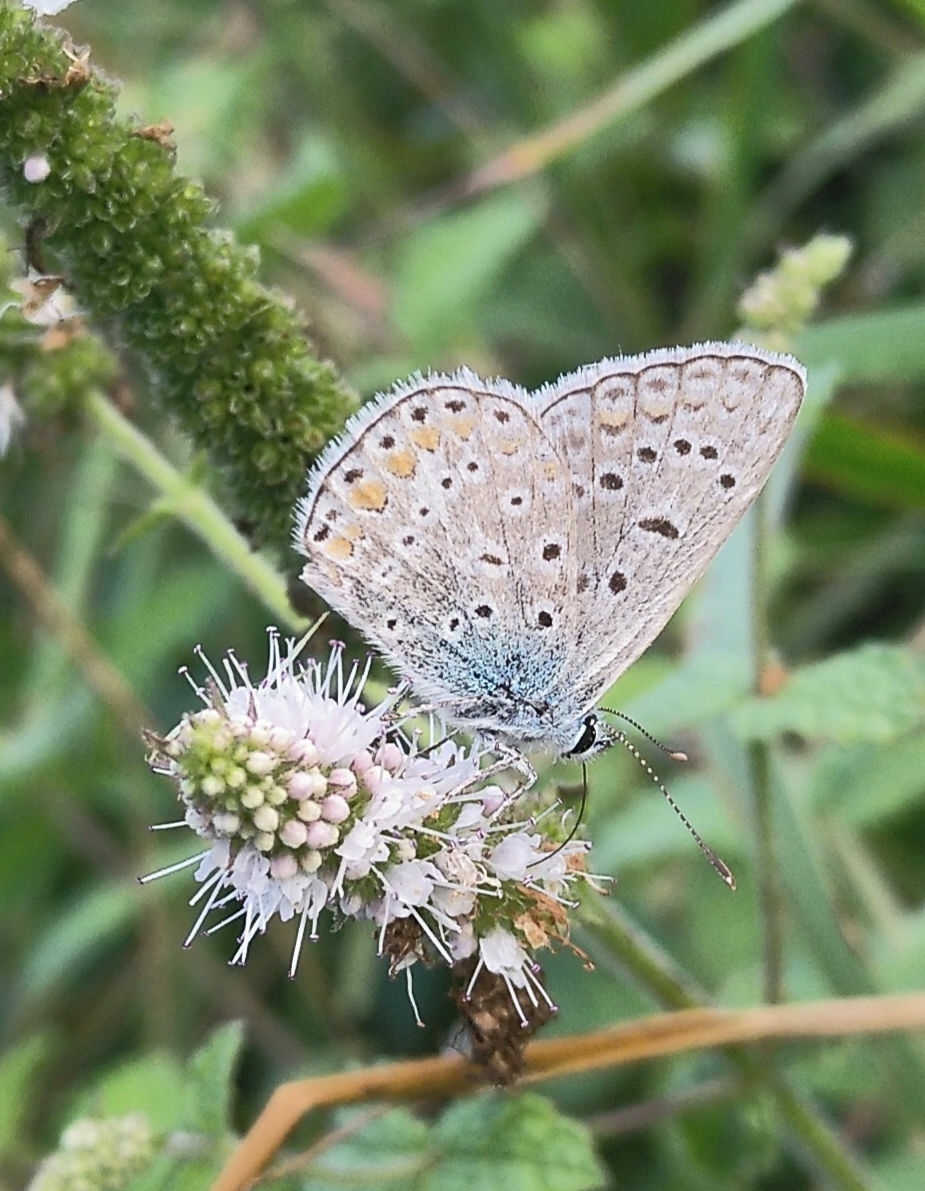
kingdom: Animalia
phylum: Arthropoda
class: Insecta
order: Lepidoptera
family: Lycaenidae
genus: Polyommatus
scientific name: Polyommatus icarus
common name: Common blue
